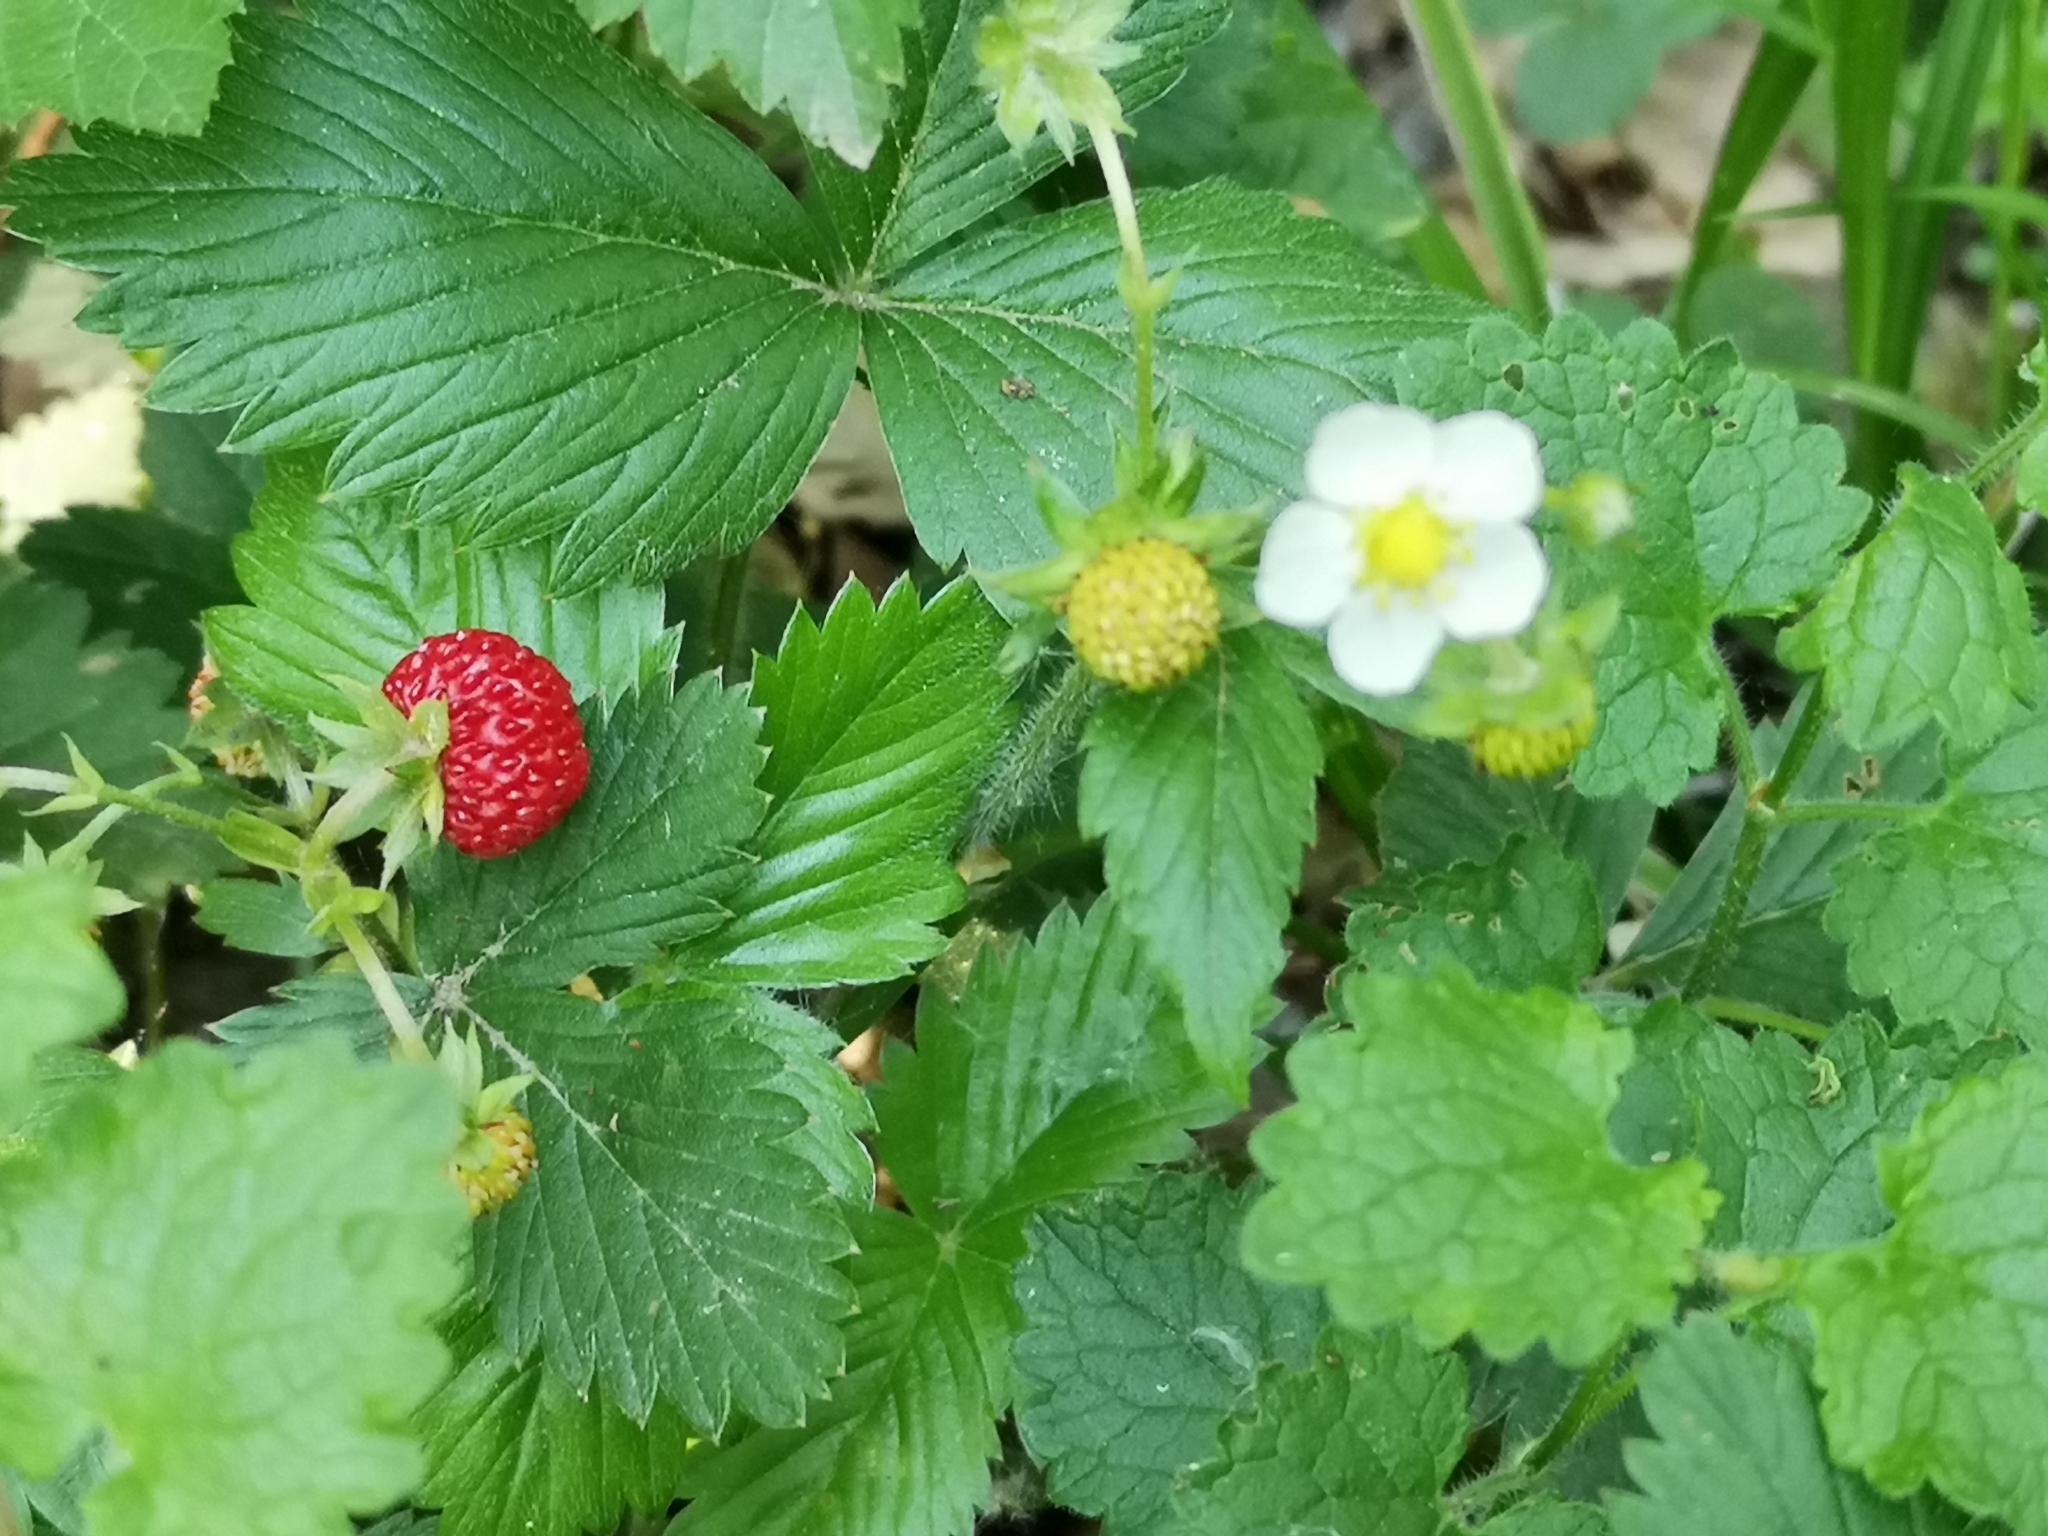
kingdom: Plantae
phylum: Tracheophyta
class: Magnoliopsida
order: Rosales
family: Rosaceae
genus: Fragaria
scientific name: Fragaria vesca
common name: Wild strawberry
